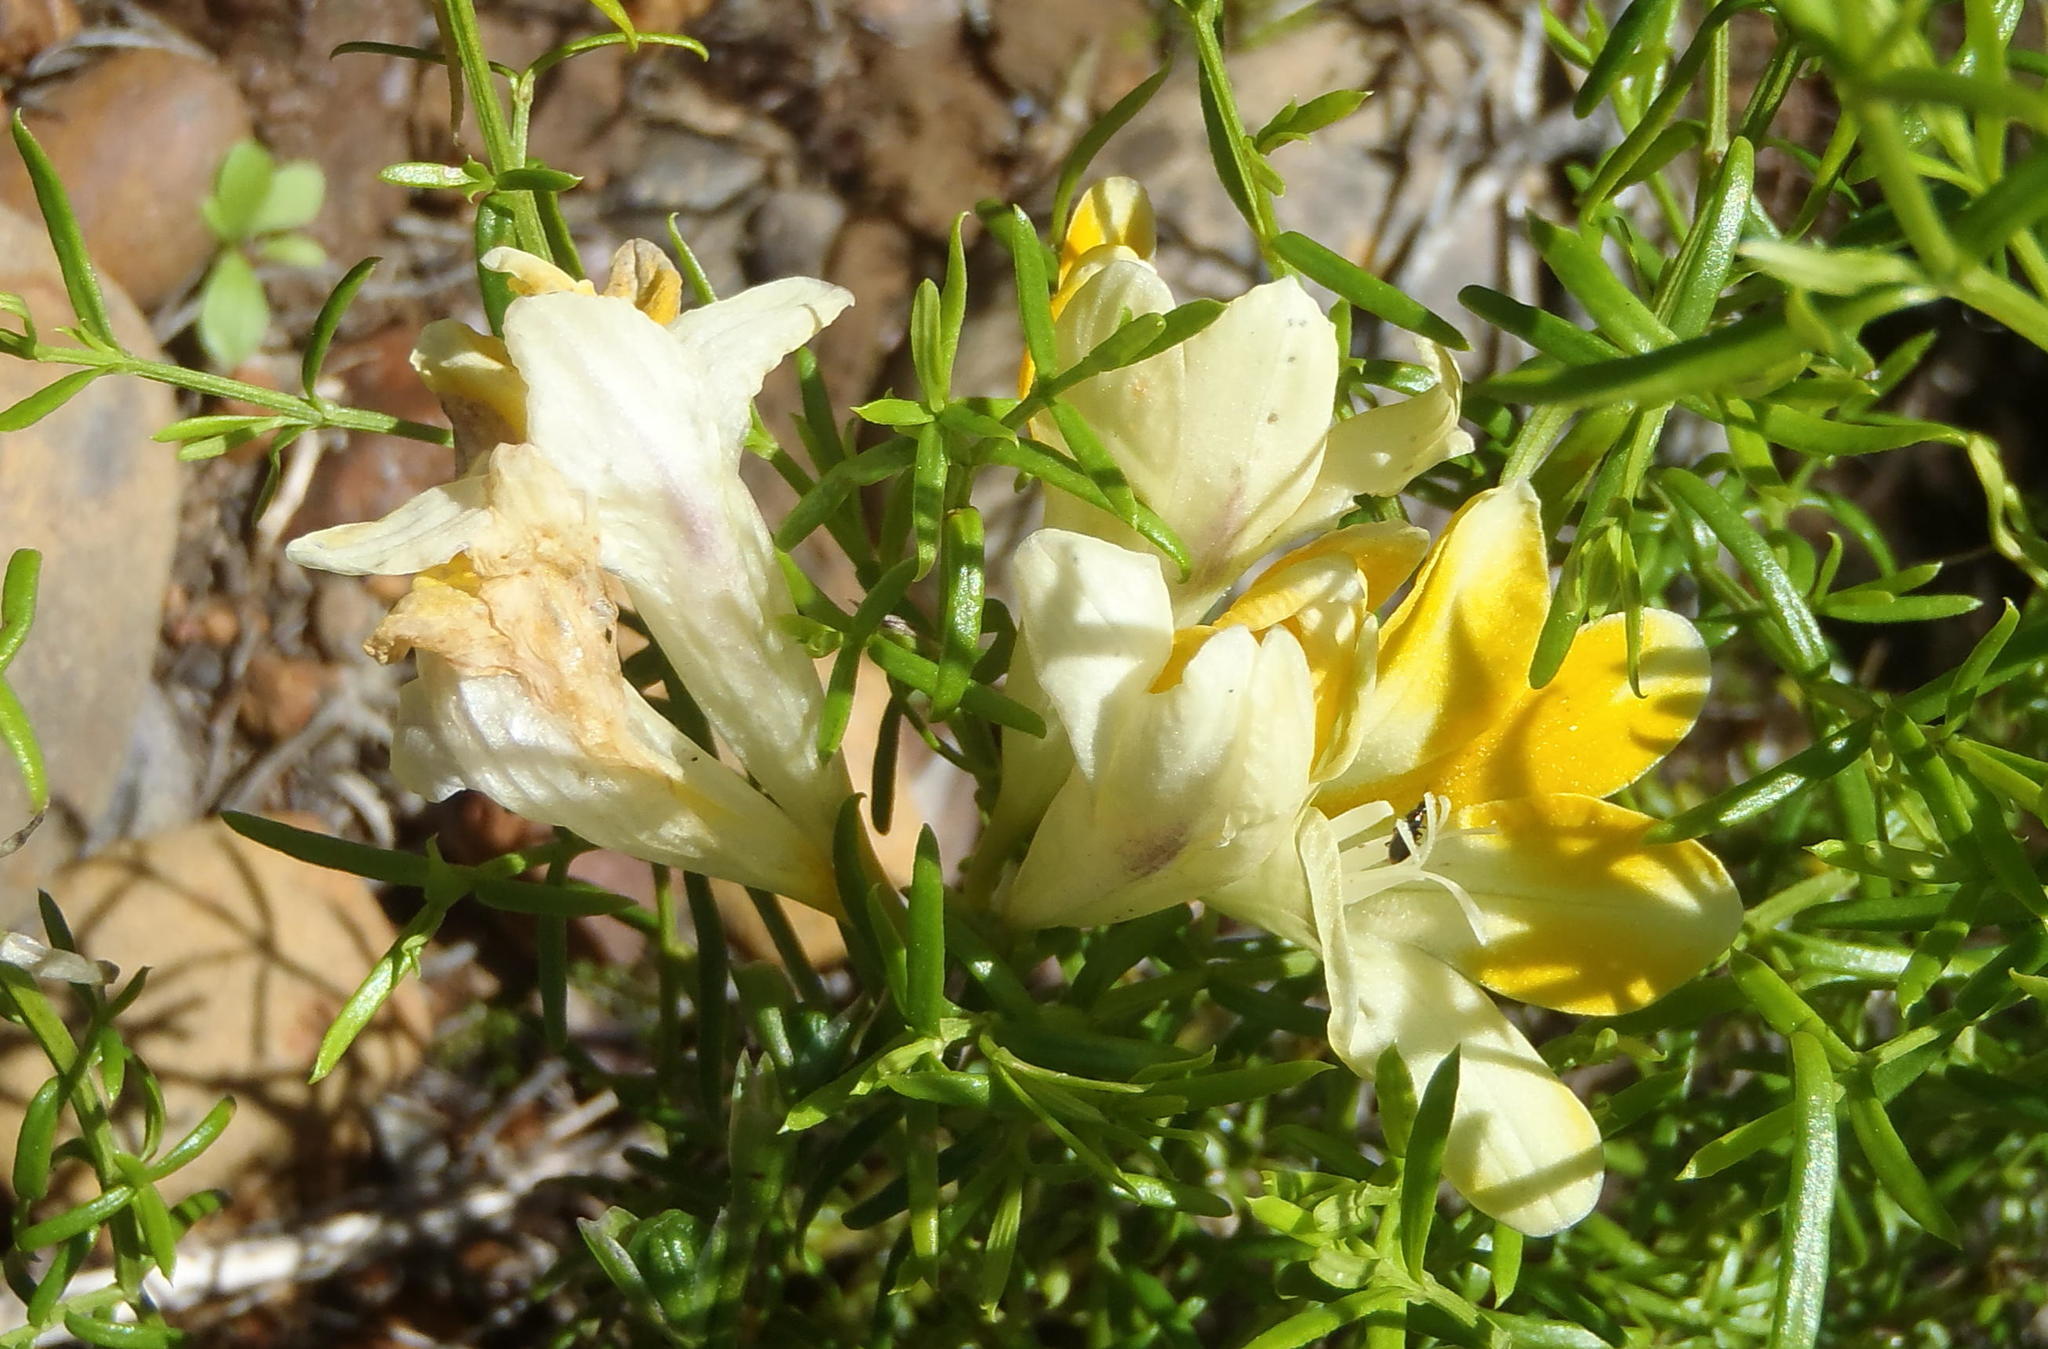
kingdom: Plantae
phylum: Tracheophyta
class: Liliopsida
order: Asparagales
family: Iridaceae
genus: Freesia
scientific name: Freesia fergusoniae
